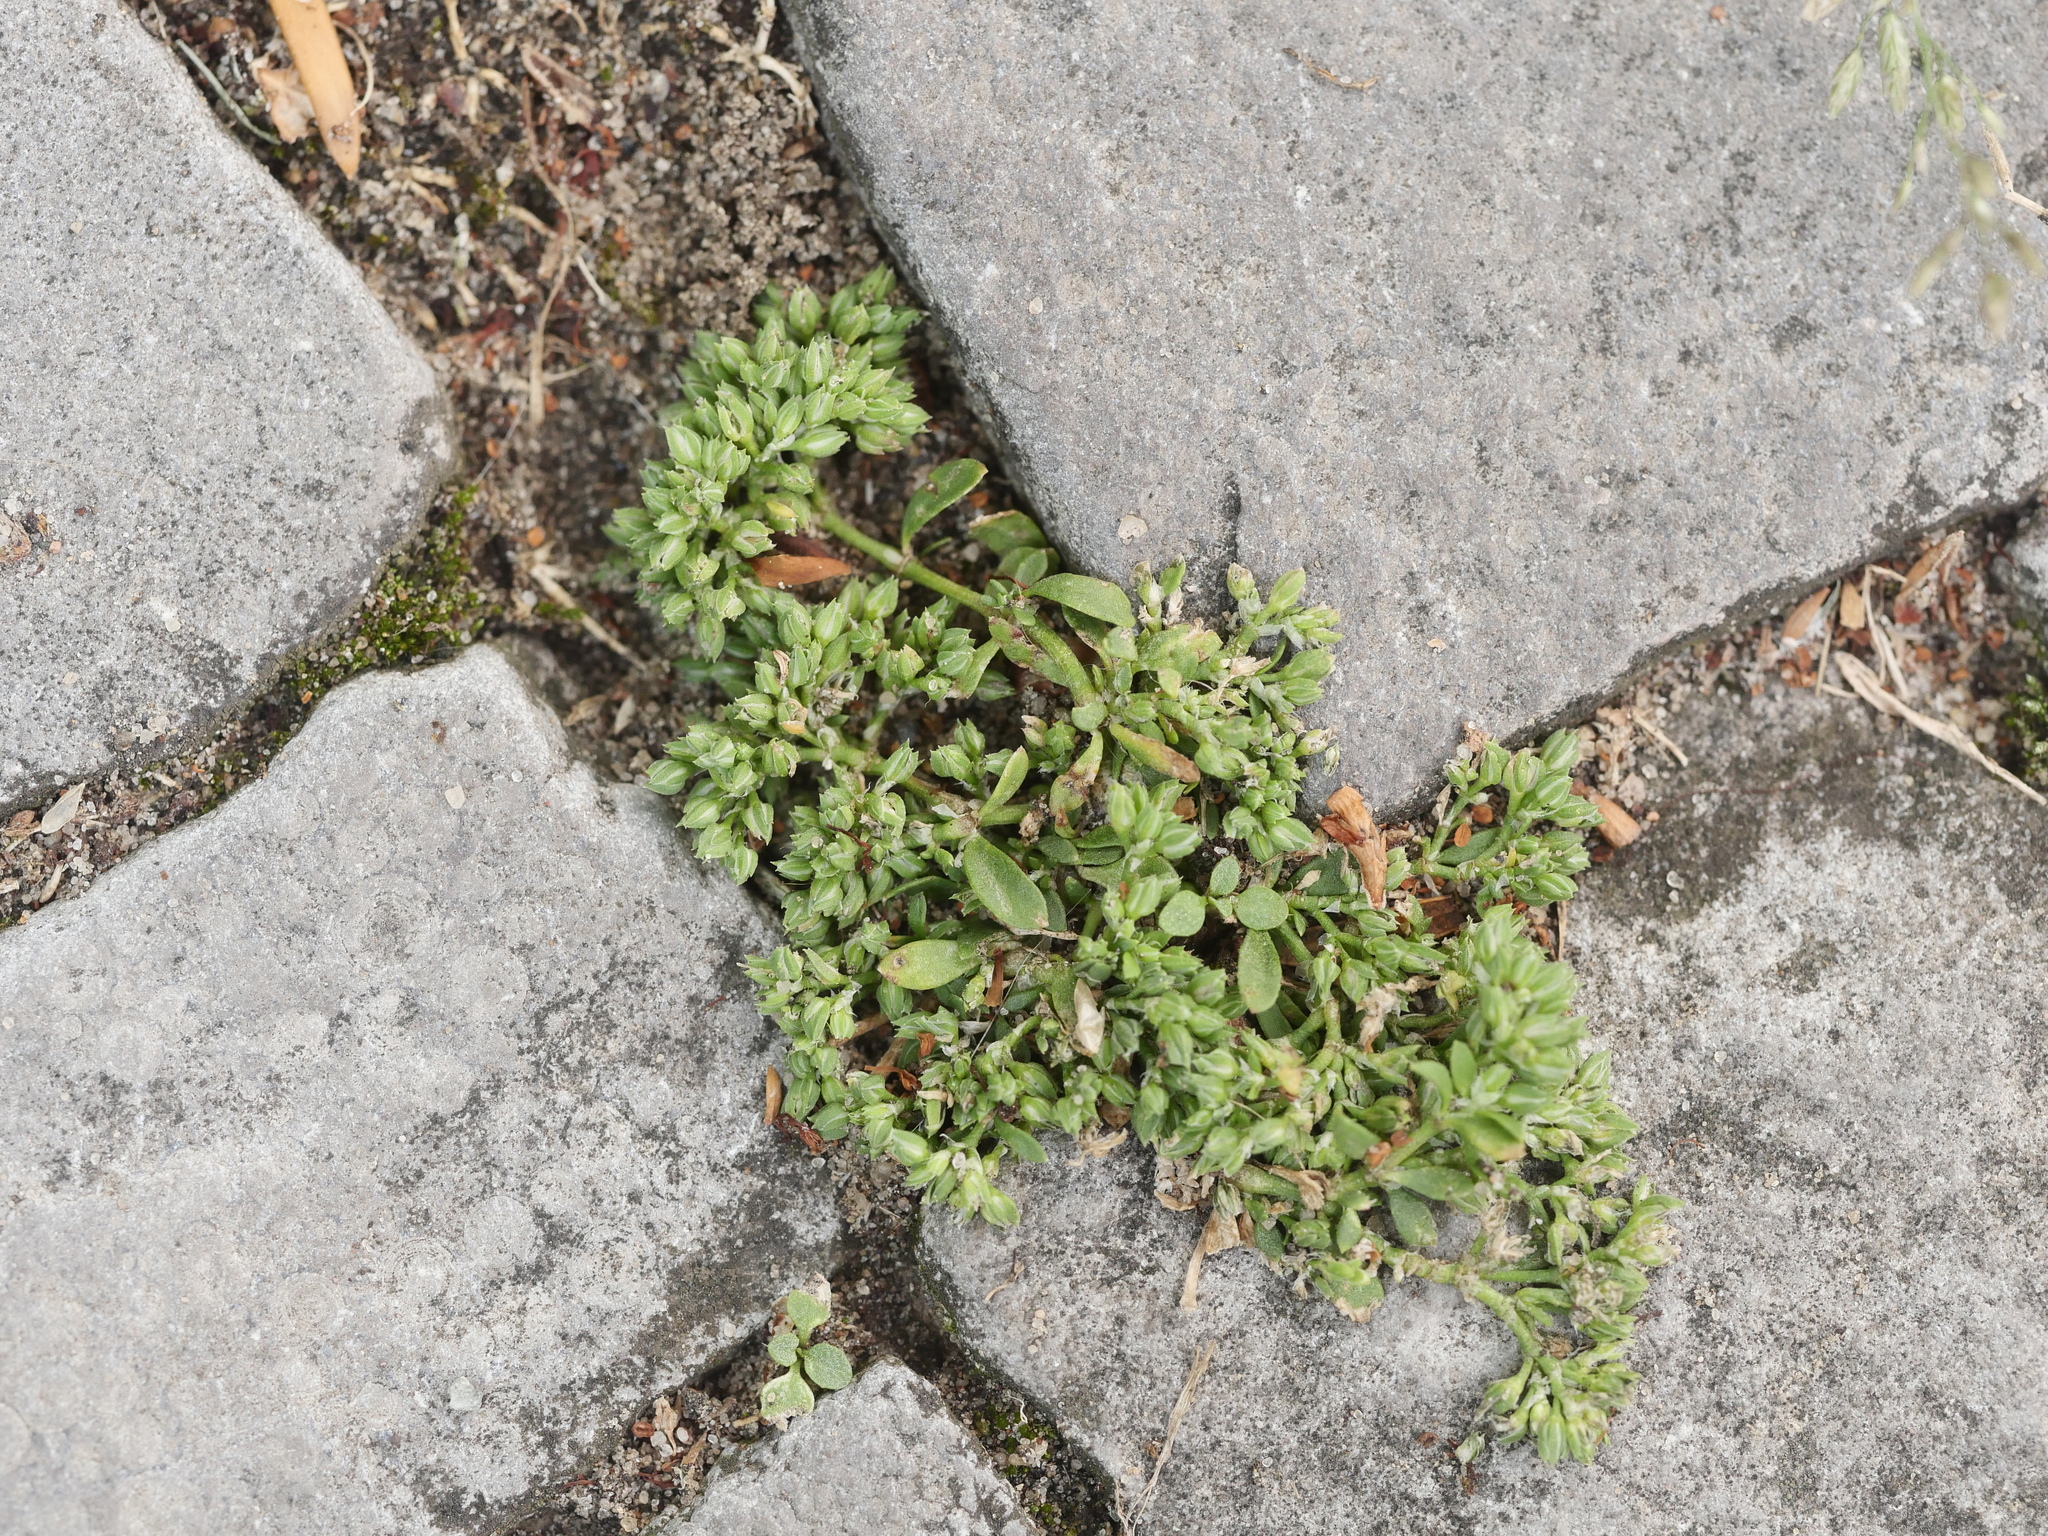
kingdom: Plantae
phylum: Tracheophyta
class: Magnoliopsida
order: Caryophyllales
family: Caryophyllaceae
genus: Polycarpon
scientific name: Polycarpon tetraphyllum
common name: Four-leaved all-seed
